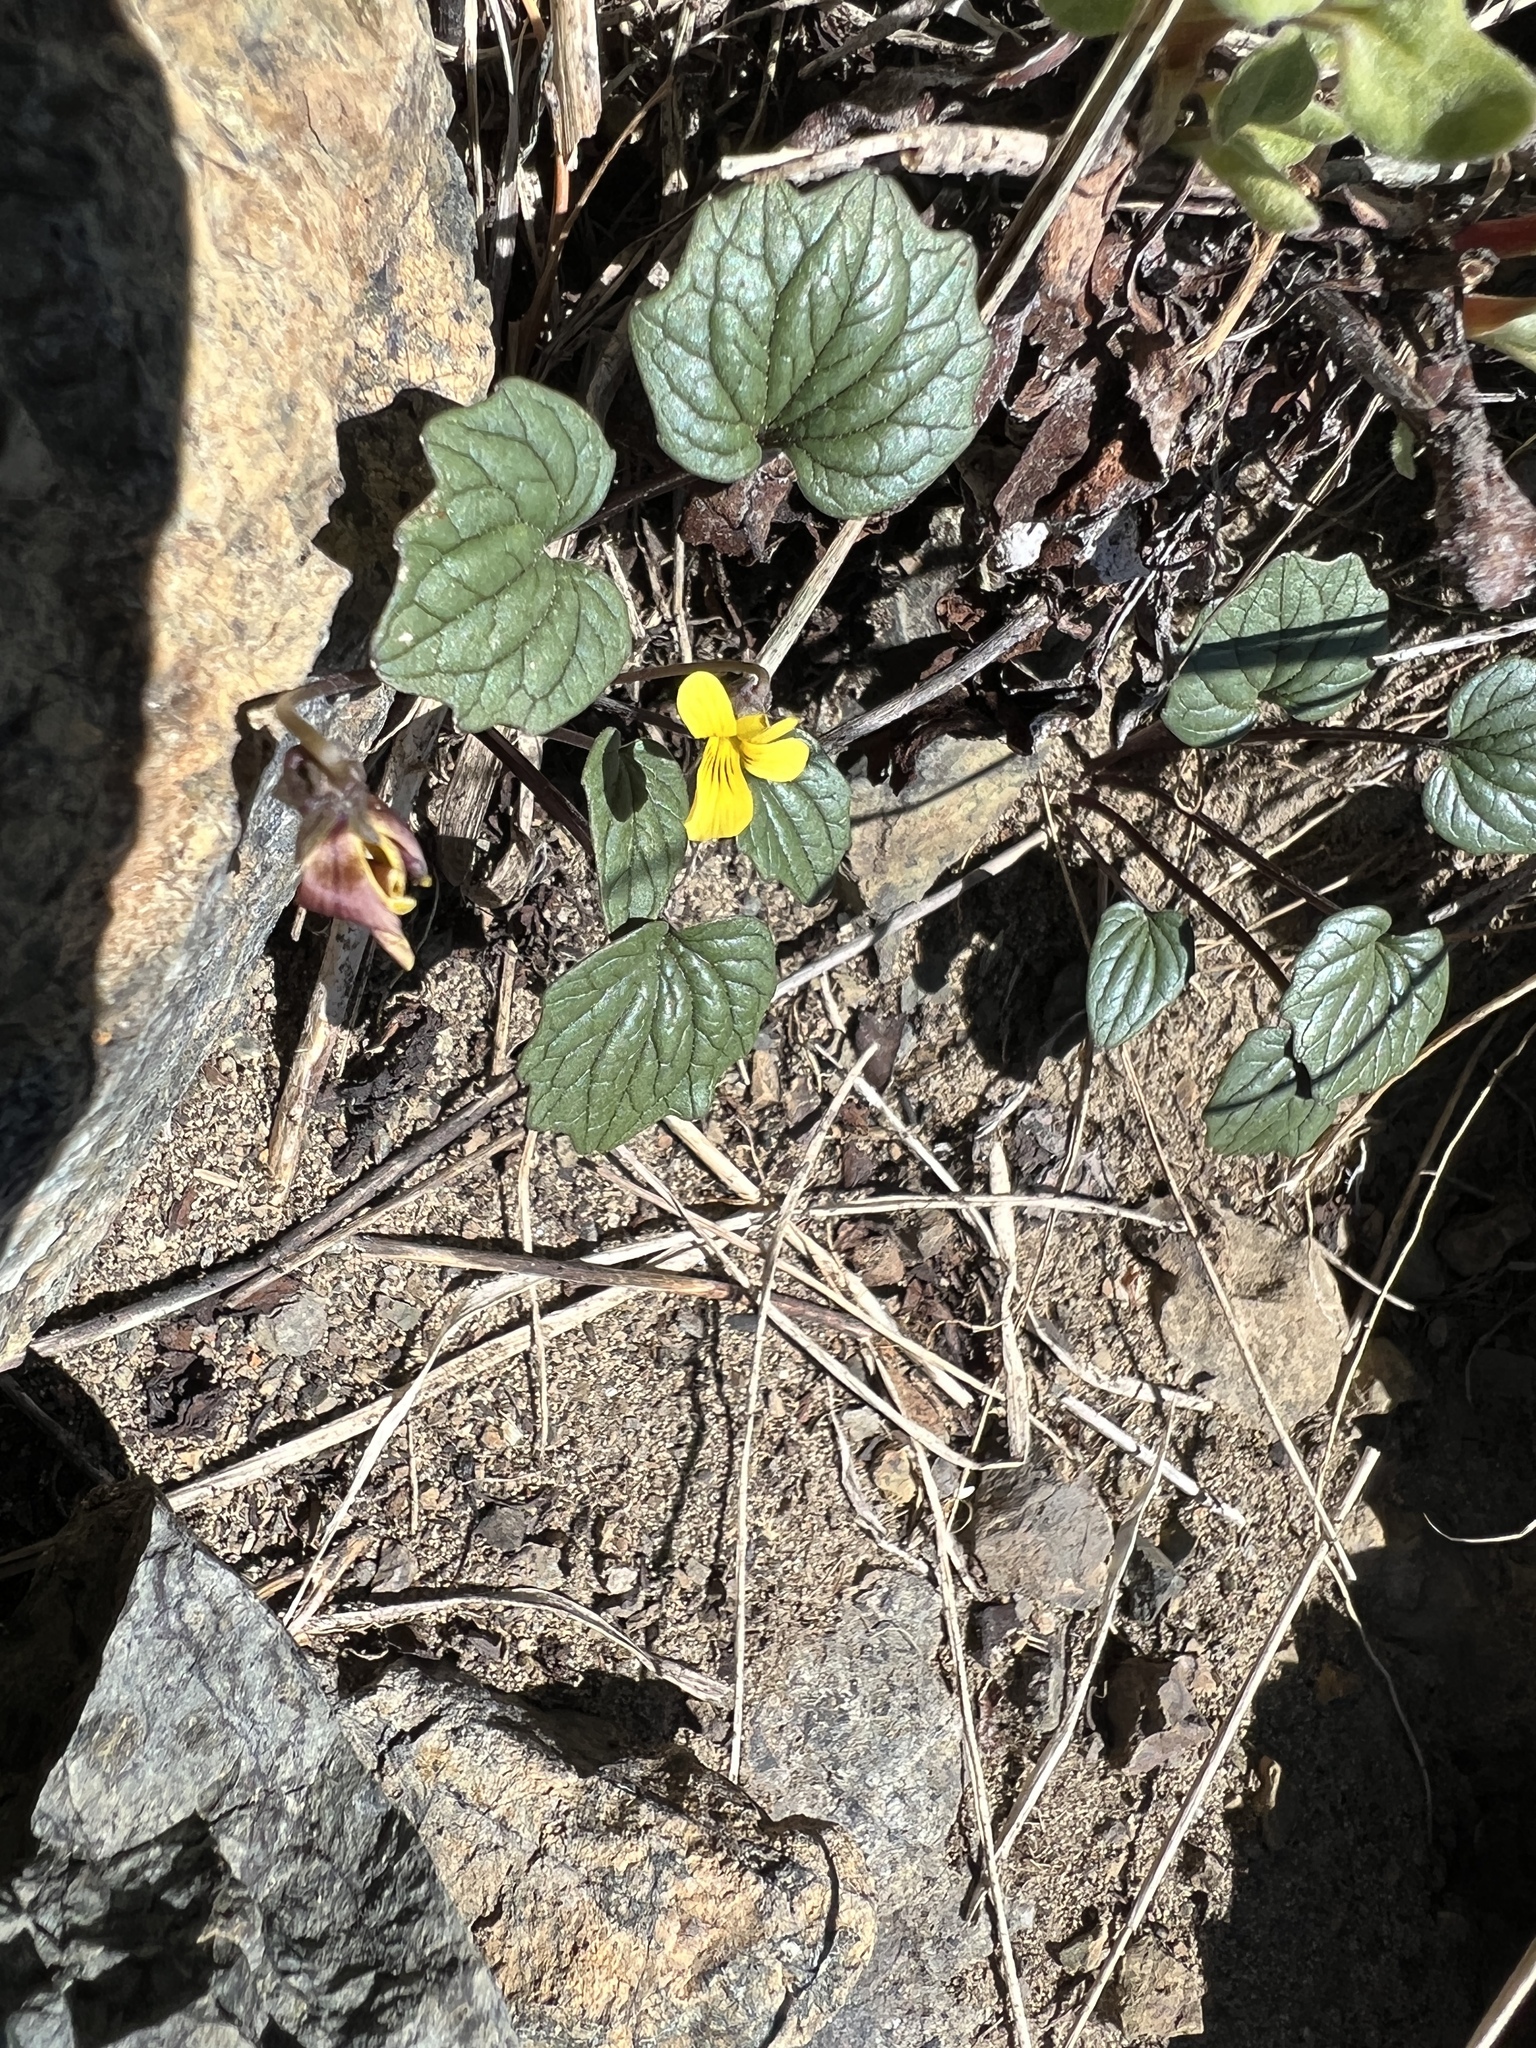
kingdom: Plantae
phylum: Tracheophyta
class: Magnoliopsida
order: Malpighiales
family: Violaceae
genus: Viola
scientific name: Viola purpurea
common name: Pine violet
